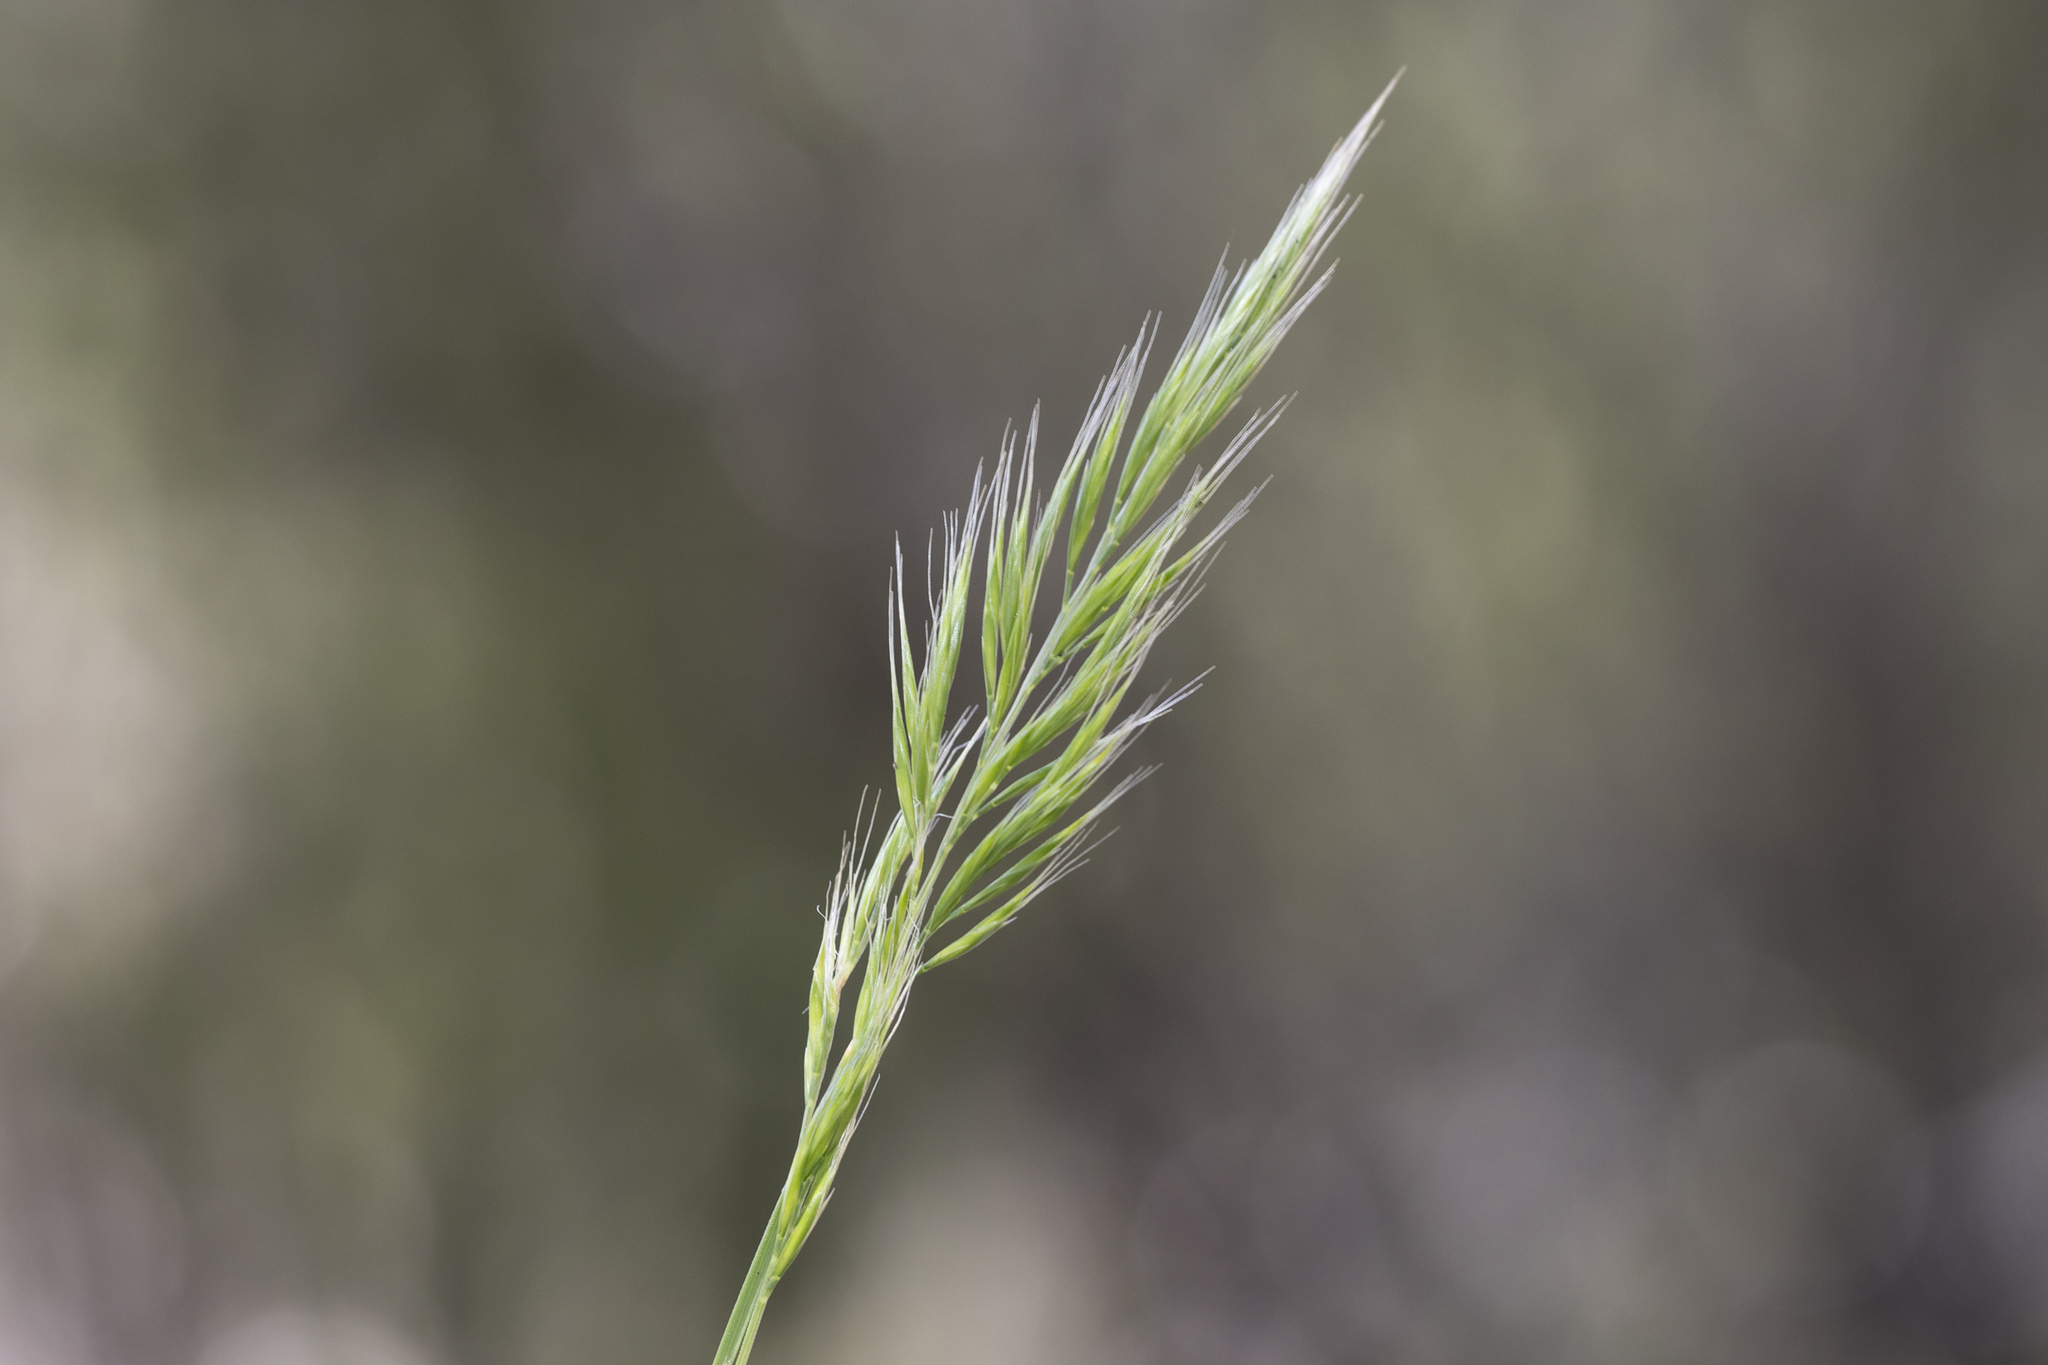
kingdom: Plantae
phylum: Tracheophyta
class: Liliopsida
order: Poales
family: Poaceae
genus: Festuca
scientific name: Festuca bromoides
